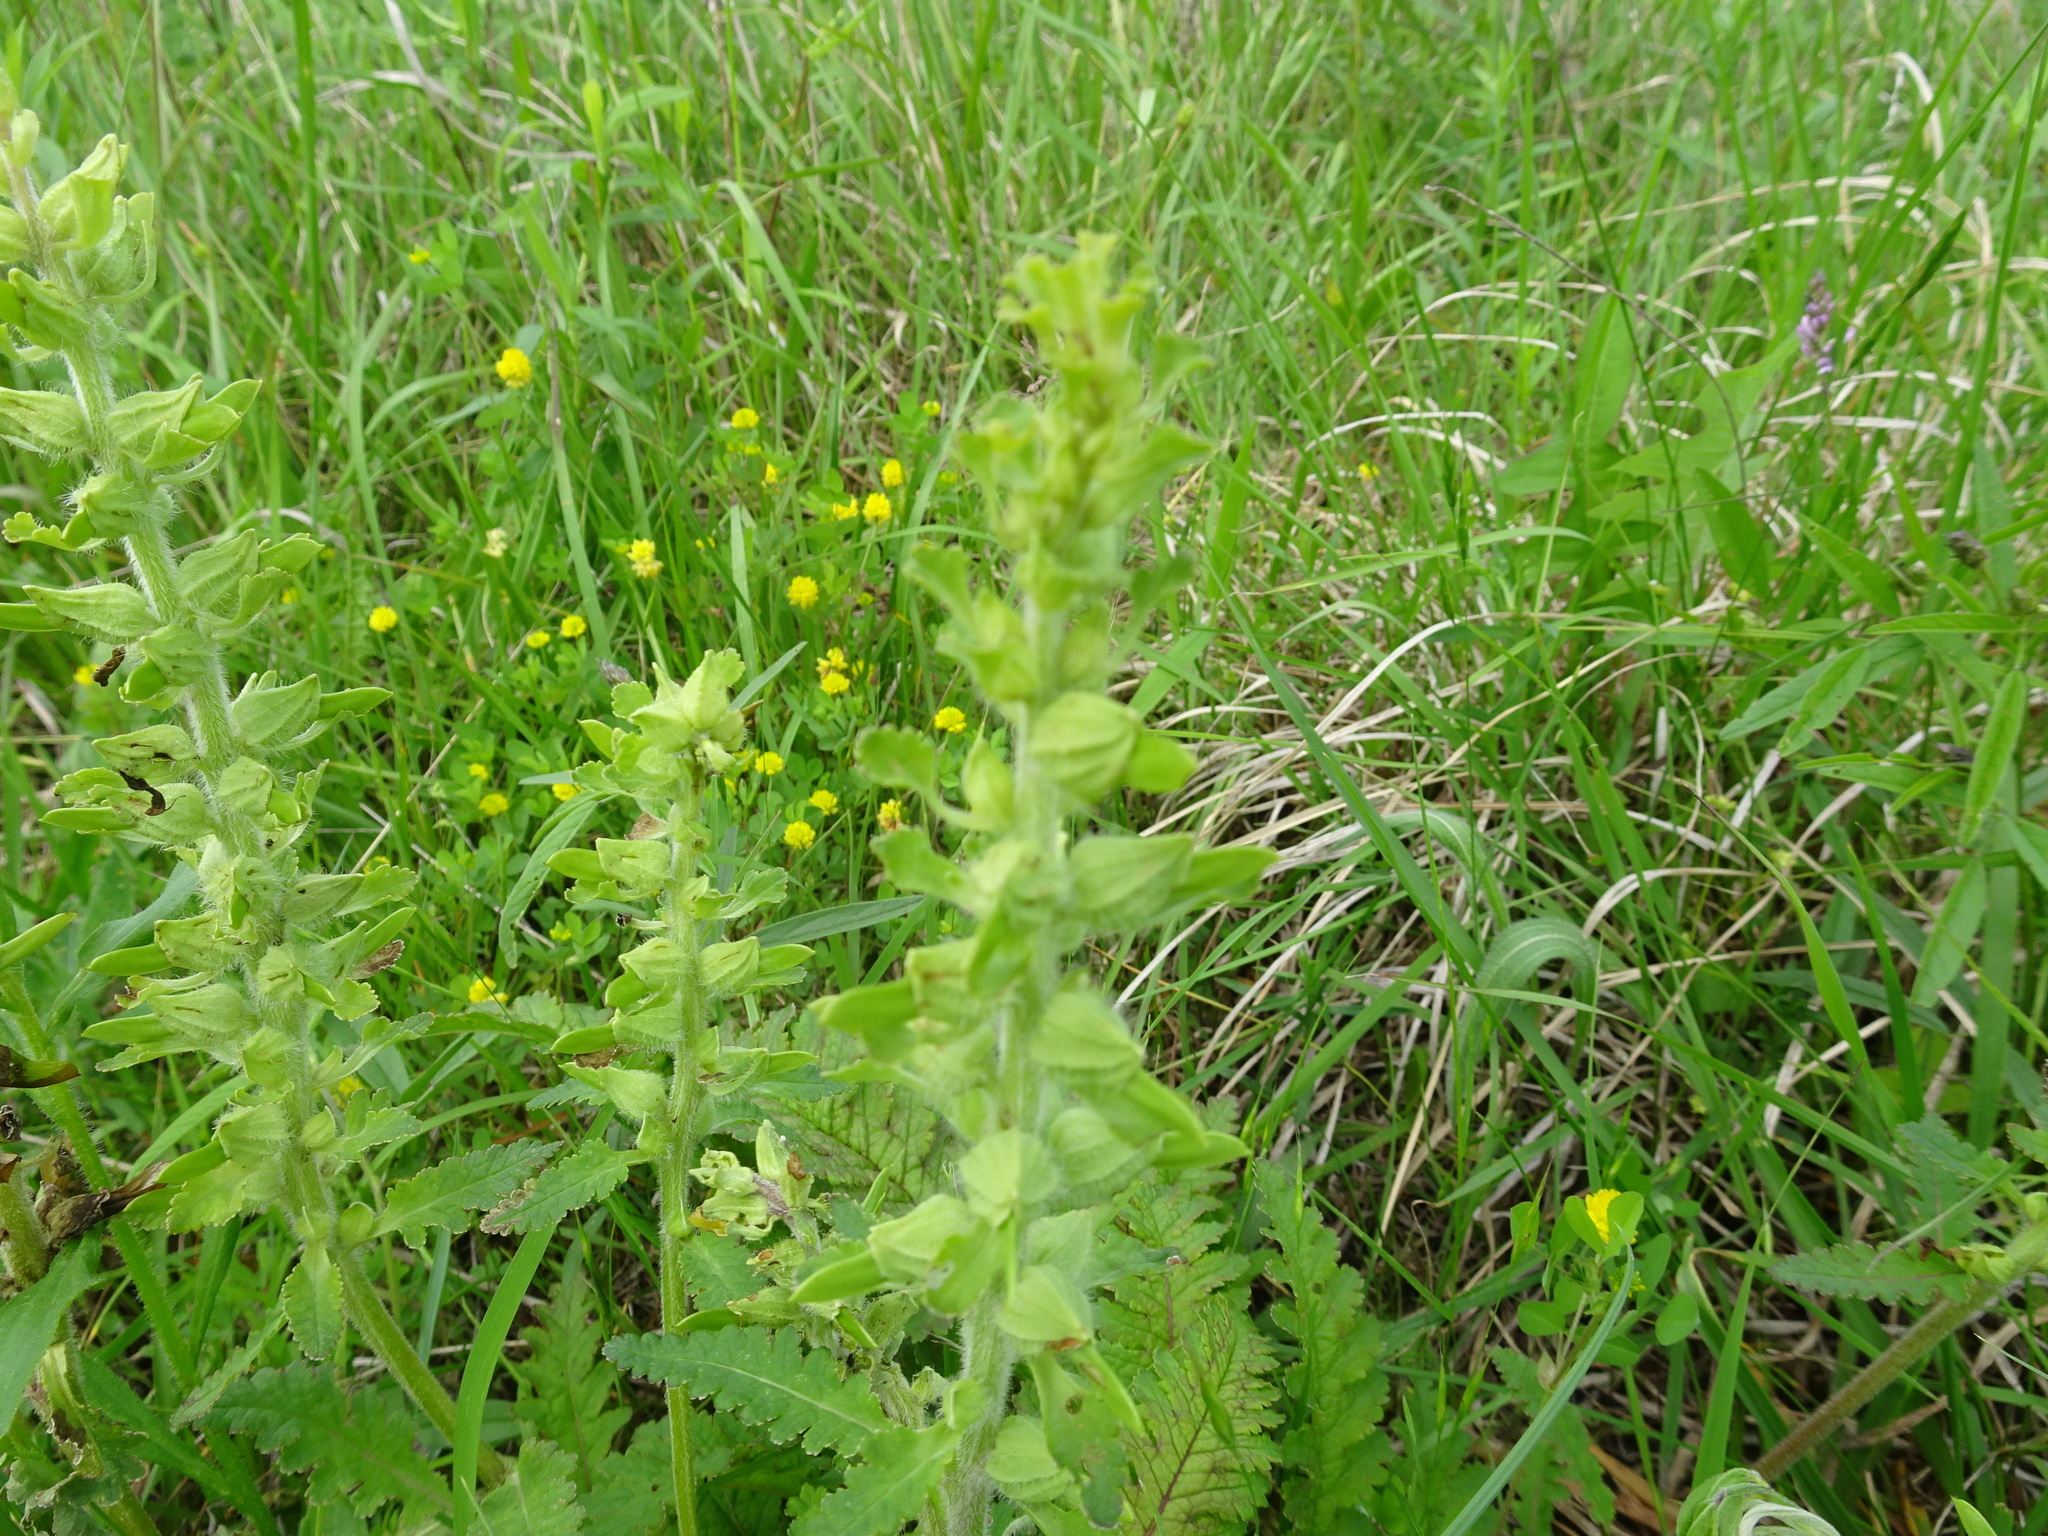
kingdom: Plantae
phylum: Tracheophyta
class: Magnoliopsida
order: Lamiales
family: Orobanchaceae
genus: Pedicularis
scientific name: Pedicularis canadensis
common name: Early lousewort
